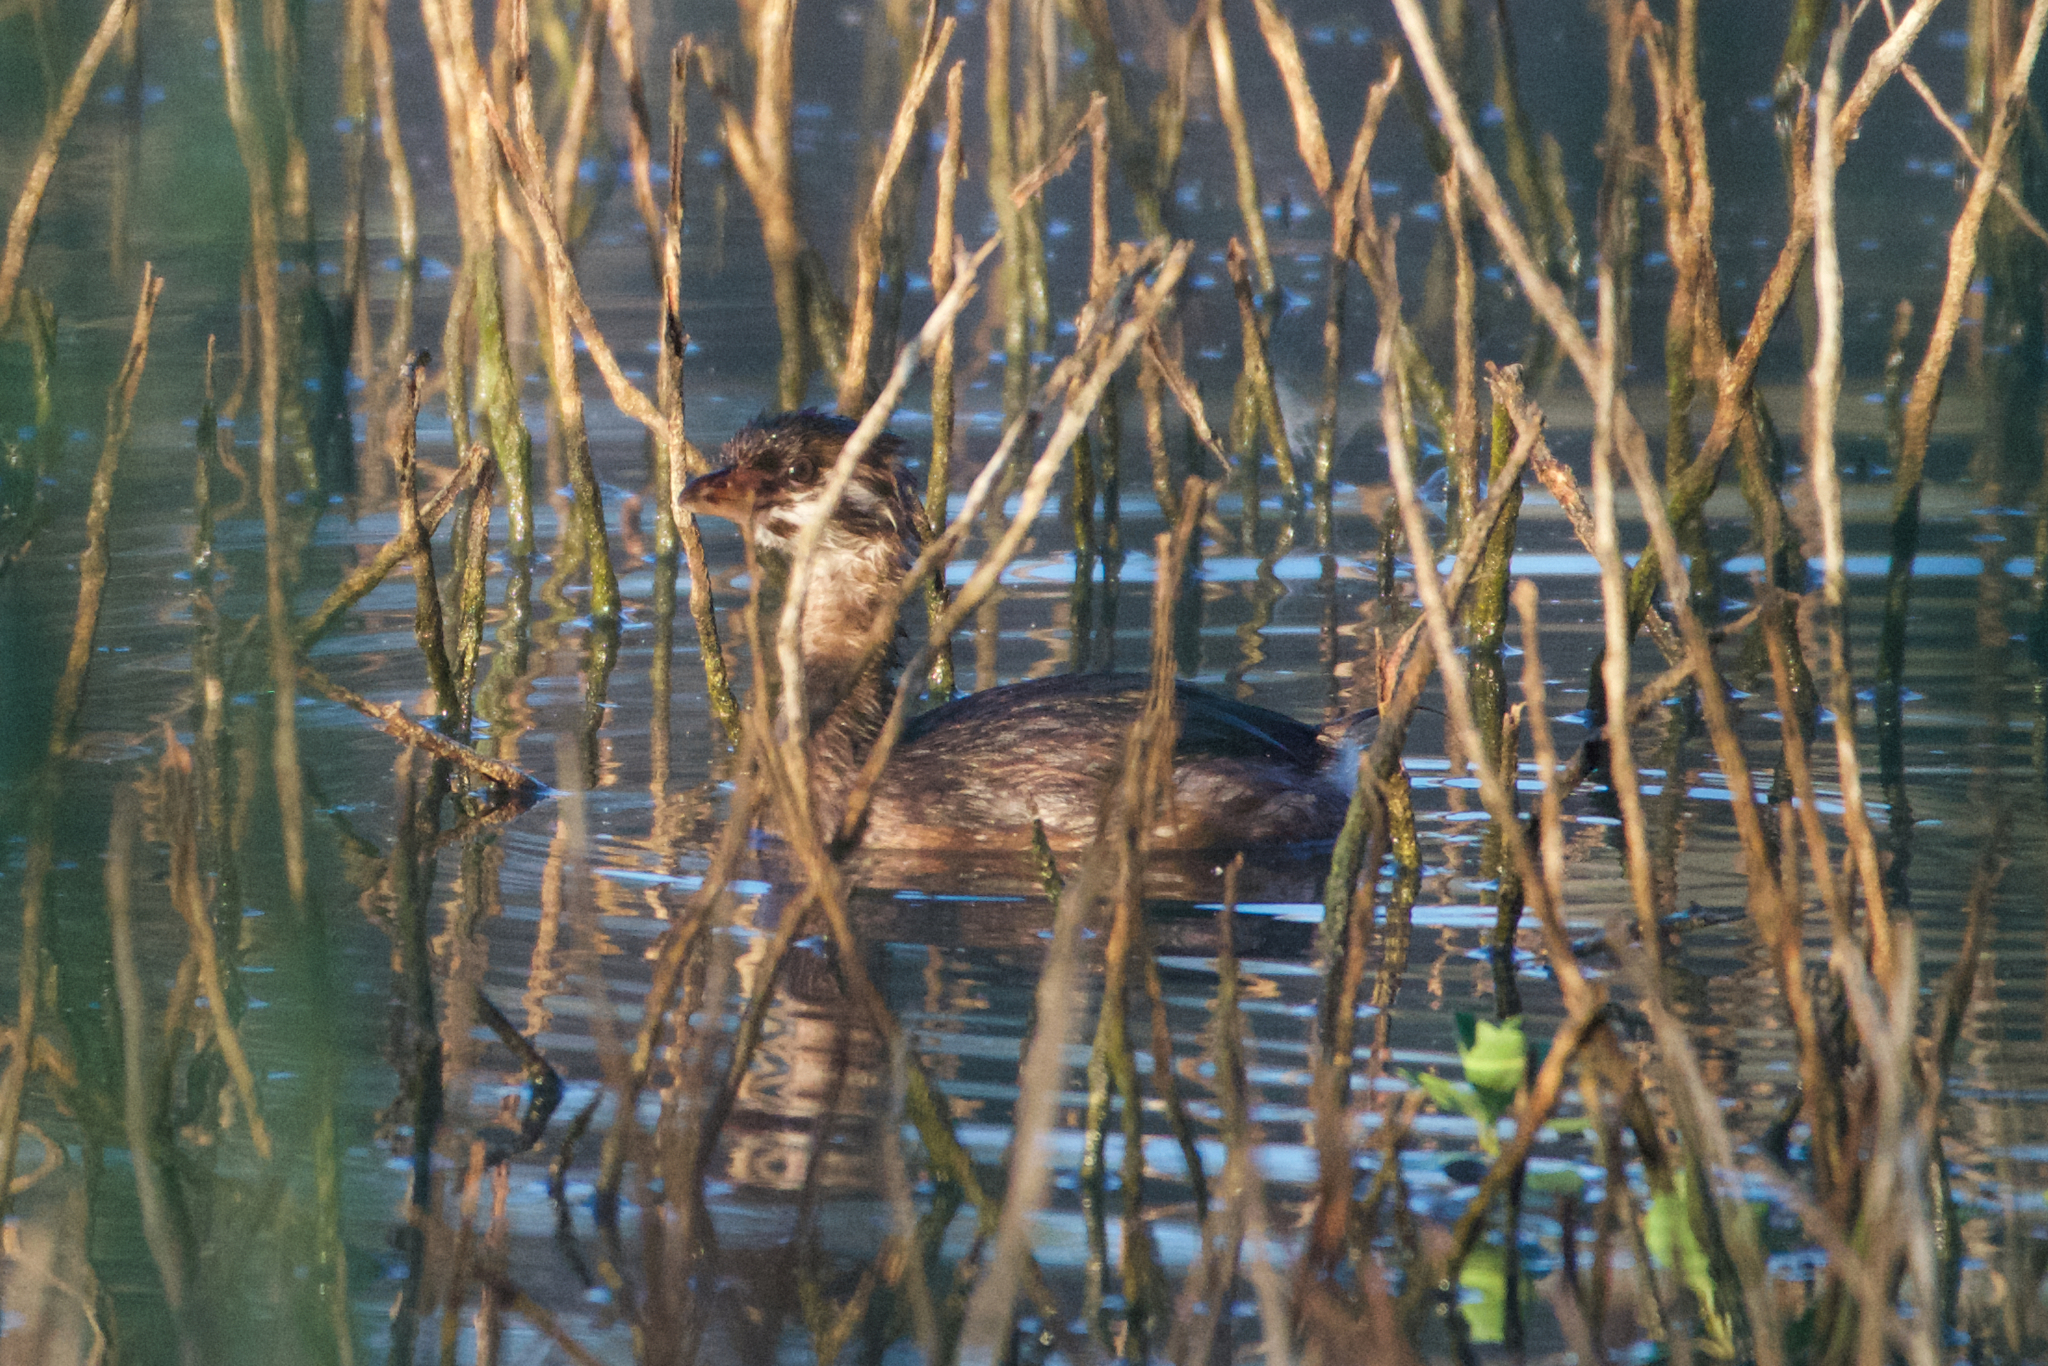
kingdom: Animalia
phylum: Chordata
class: Aves
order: Podicipediformes
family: Podicipedidae
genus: Podilymbus
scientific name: Podilymbus podiceps
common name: Pied-billed grebe
